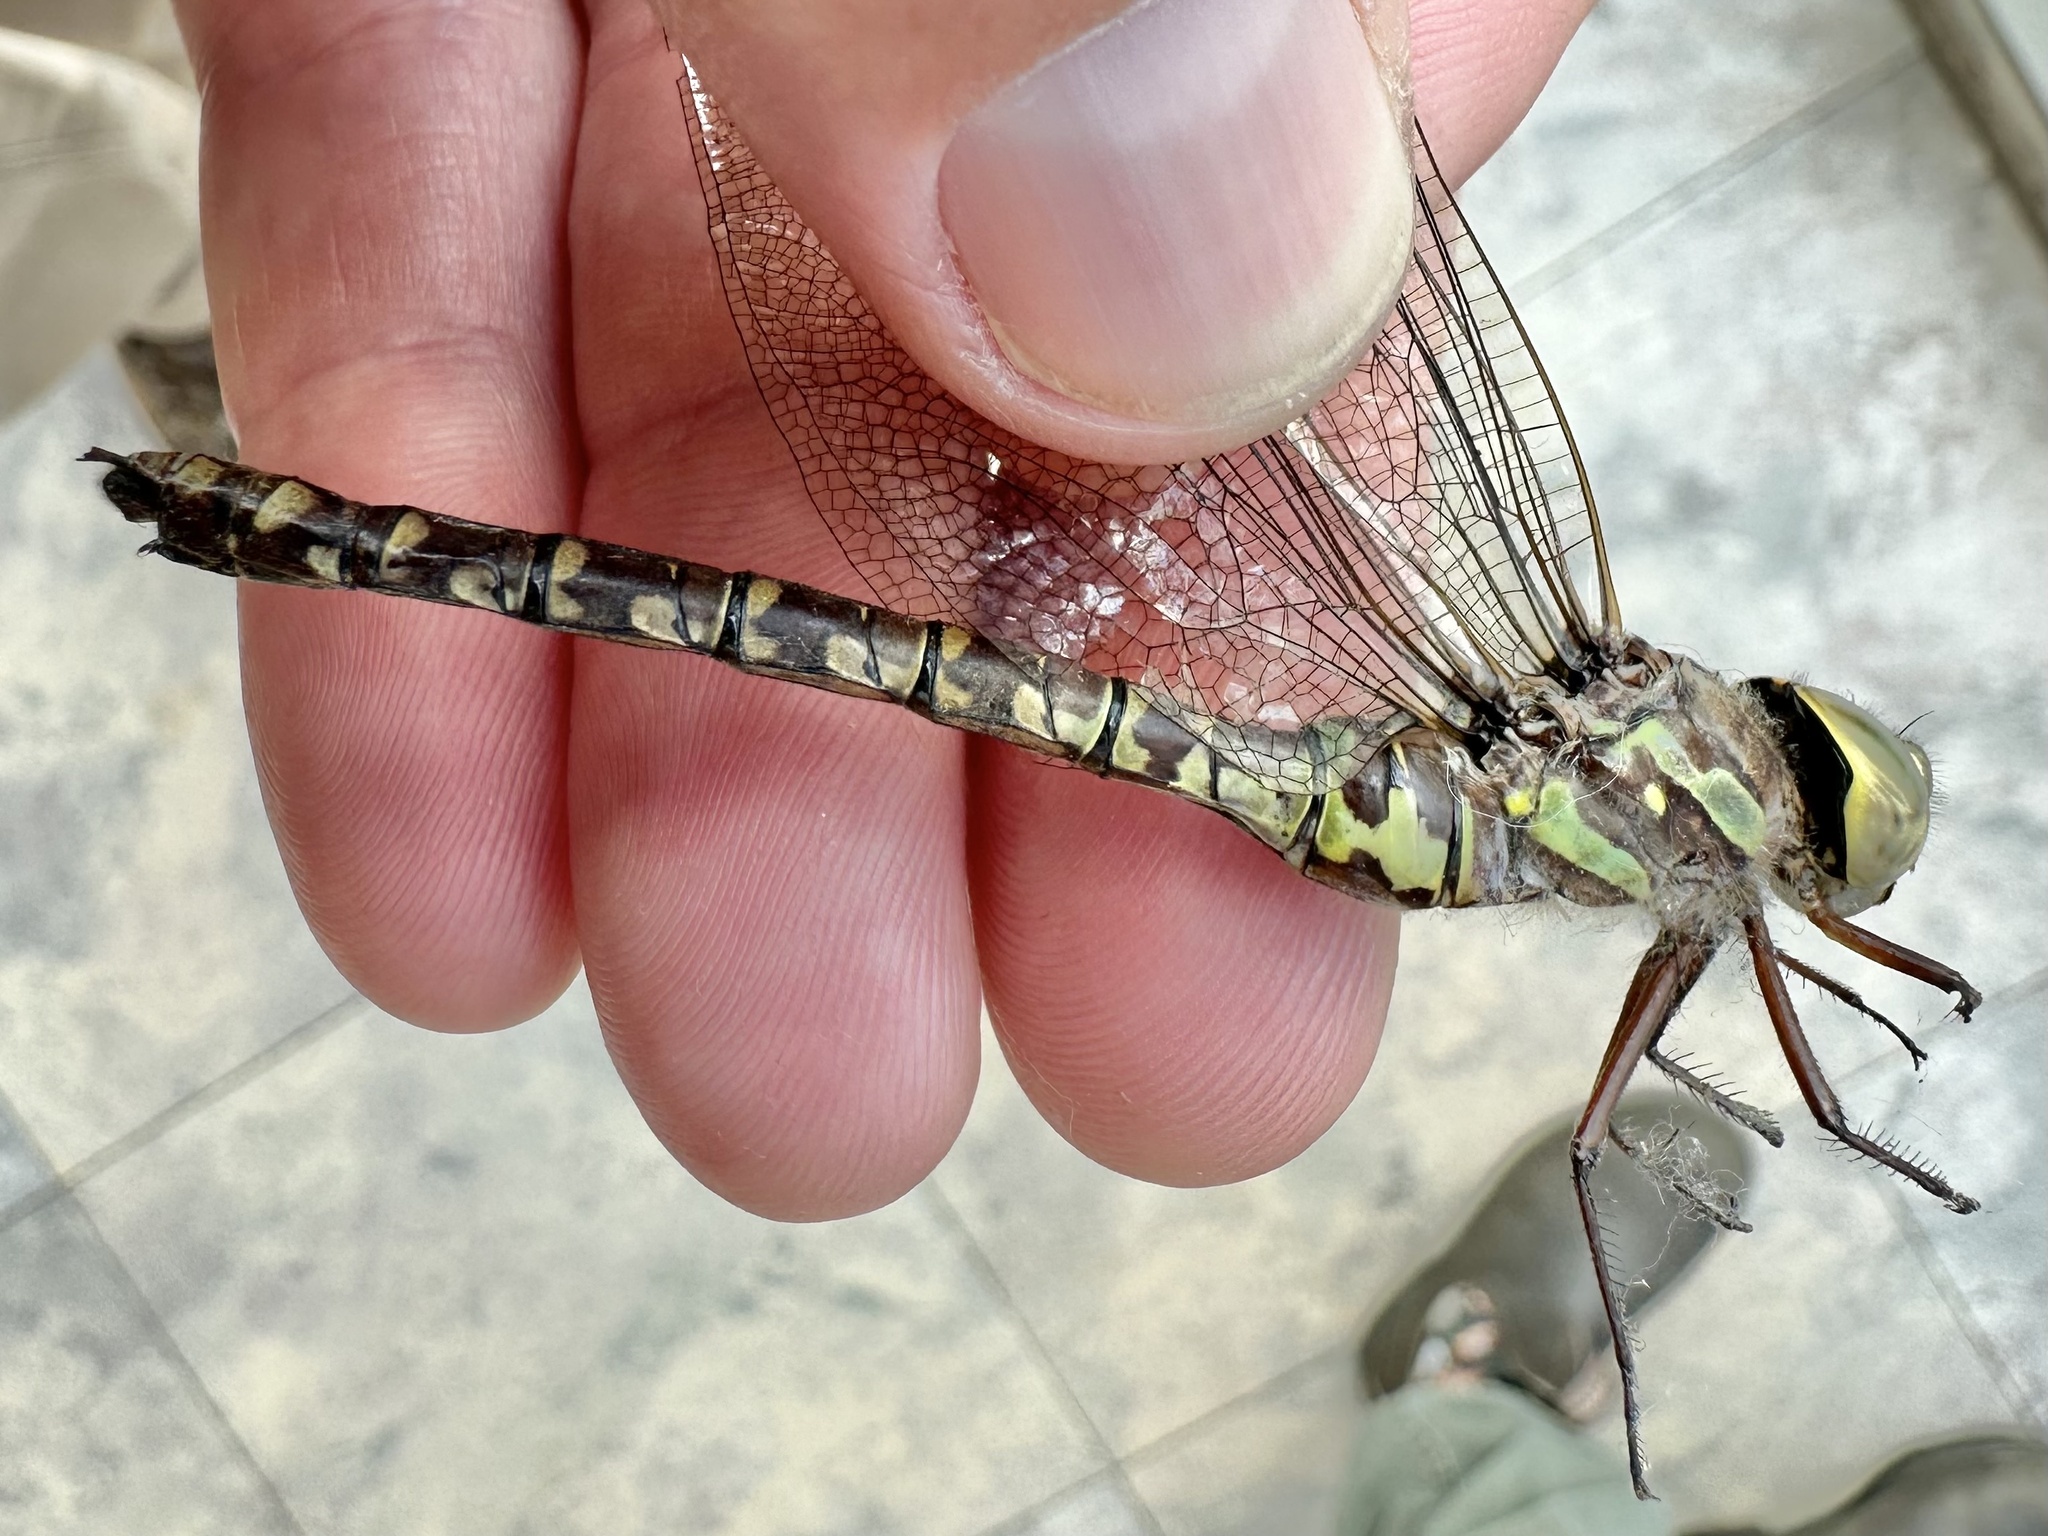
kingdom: Animalia
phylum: Arthropoda
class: Insecta
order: Odonata
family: Aeshnidae
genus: Aeshna
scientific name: Aeshna canadensis
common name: Canada darner
